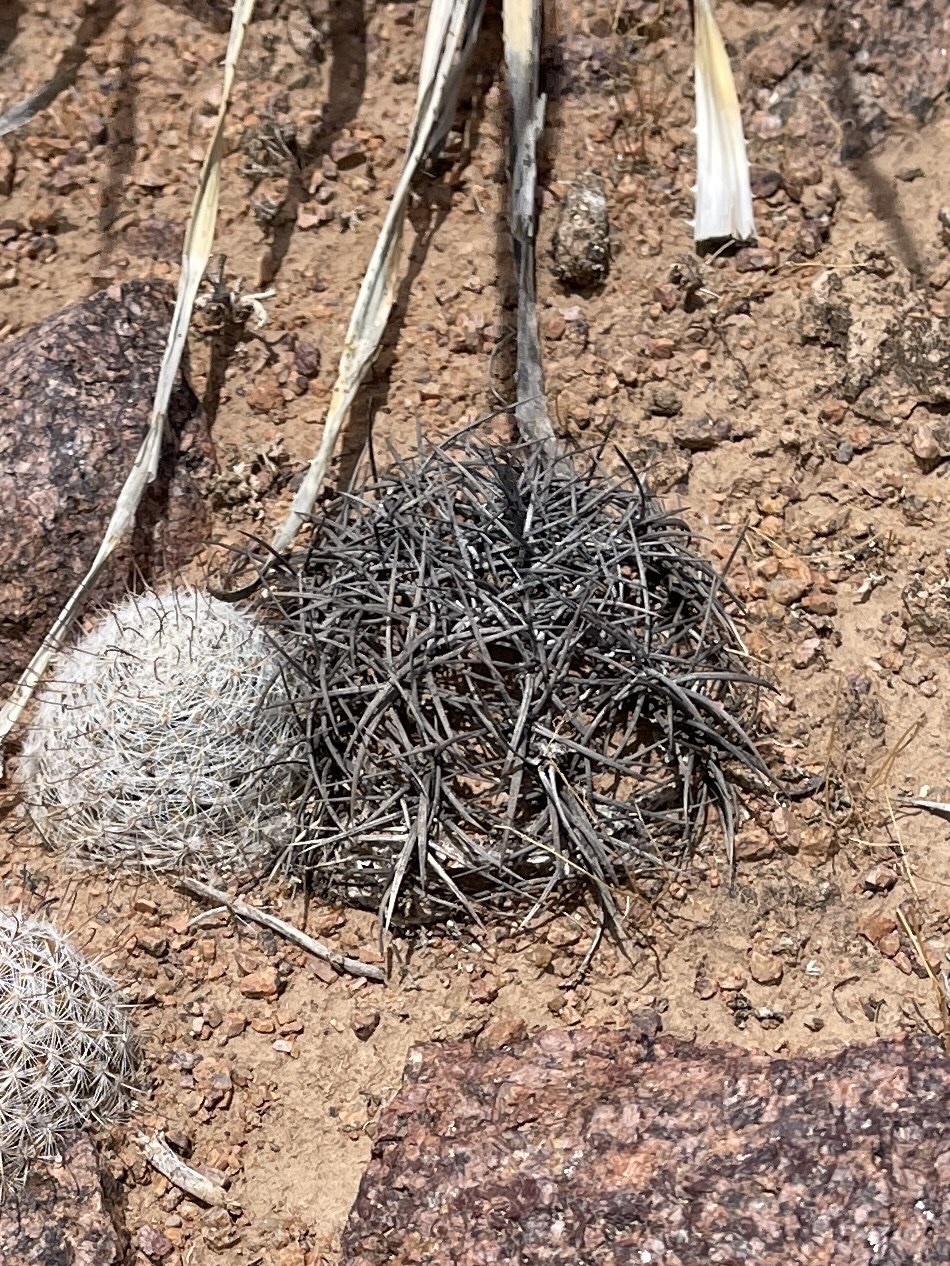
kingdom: Plantae
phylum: Tracheophyta
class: Magnoliopsida
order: Caryophyllales
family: Cactaceae
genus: Echinocactus
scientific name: Echinocactus horizonthalonius
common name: Devilshead
